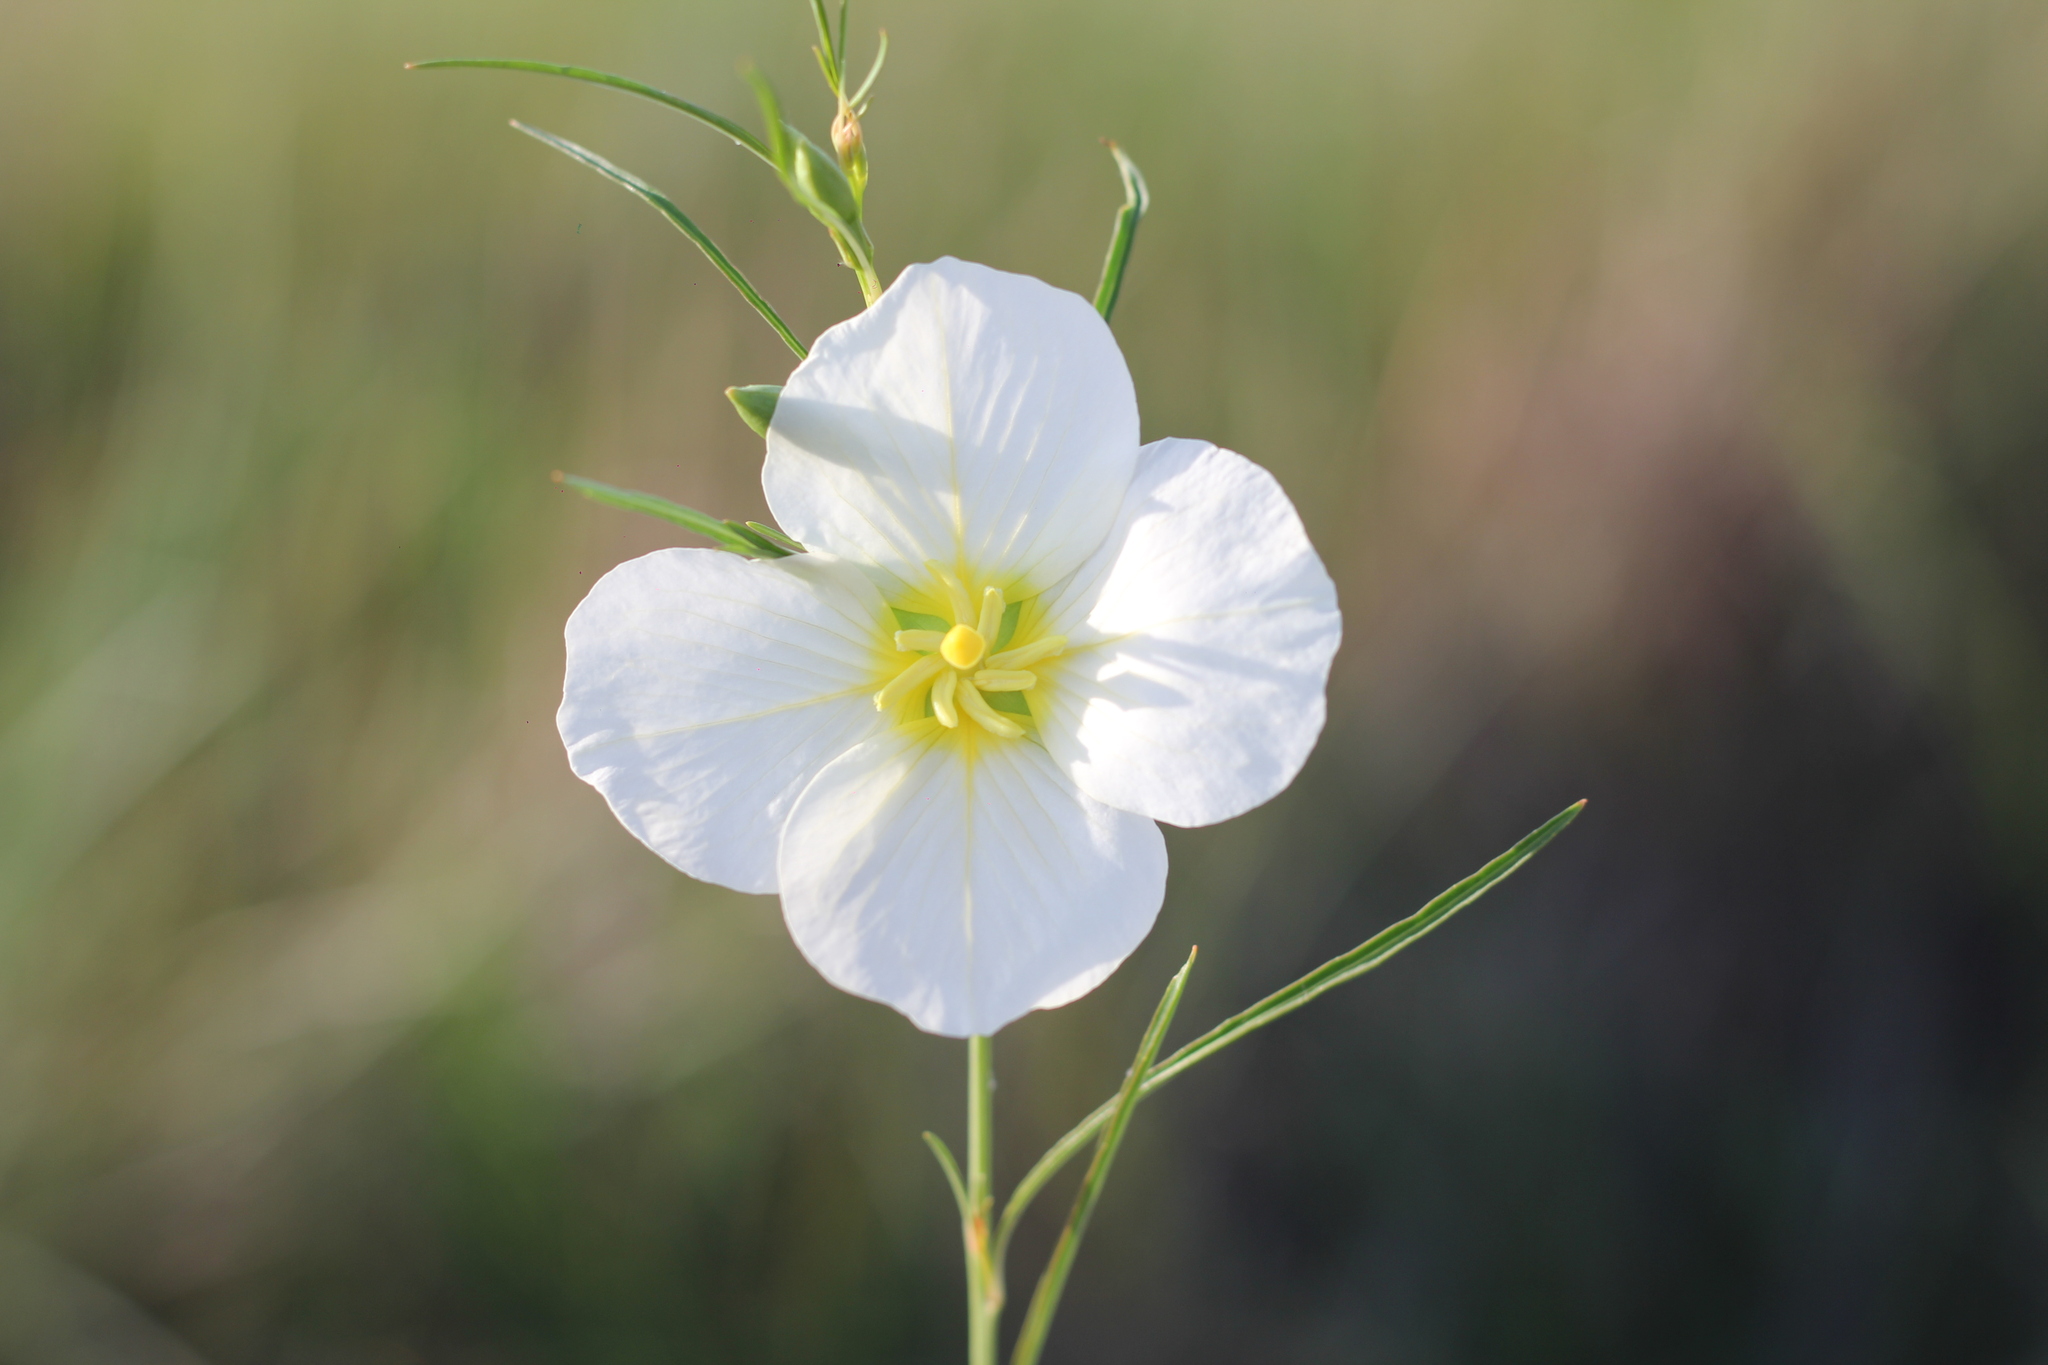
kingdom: Plantae
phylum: Tracheophyta
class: Magnoliopsida
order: Myrtales
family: Onagraceae
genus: Ludwigia
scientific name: Ludwigia major
